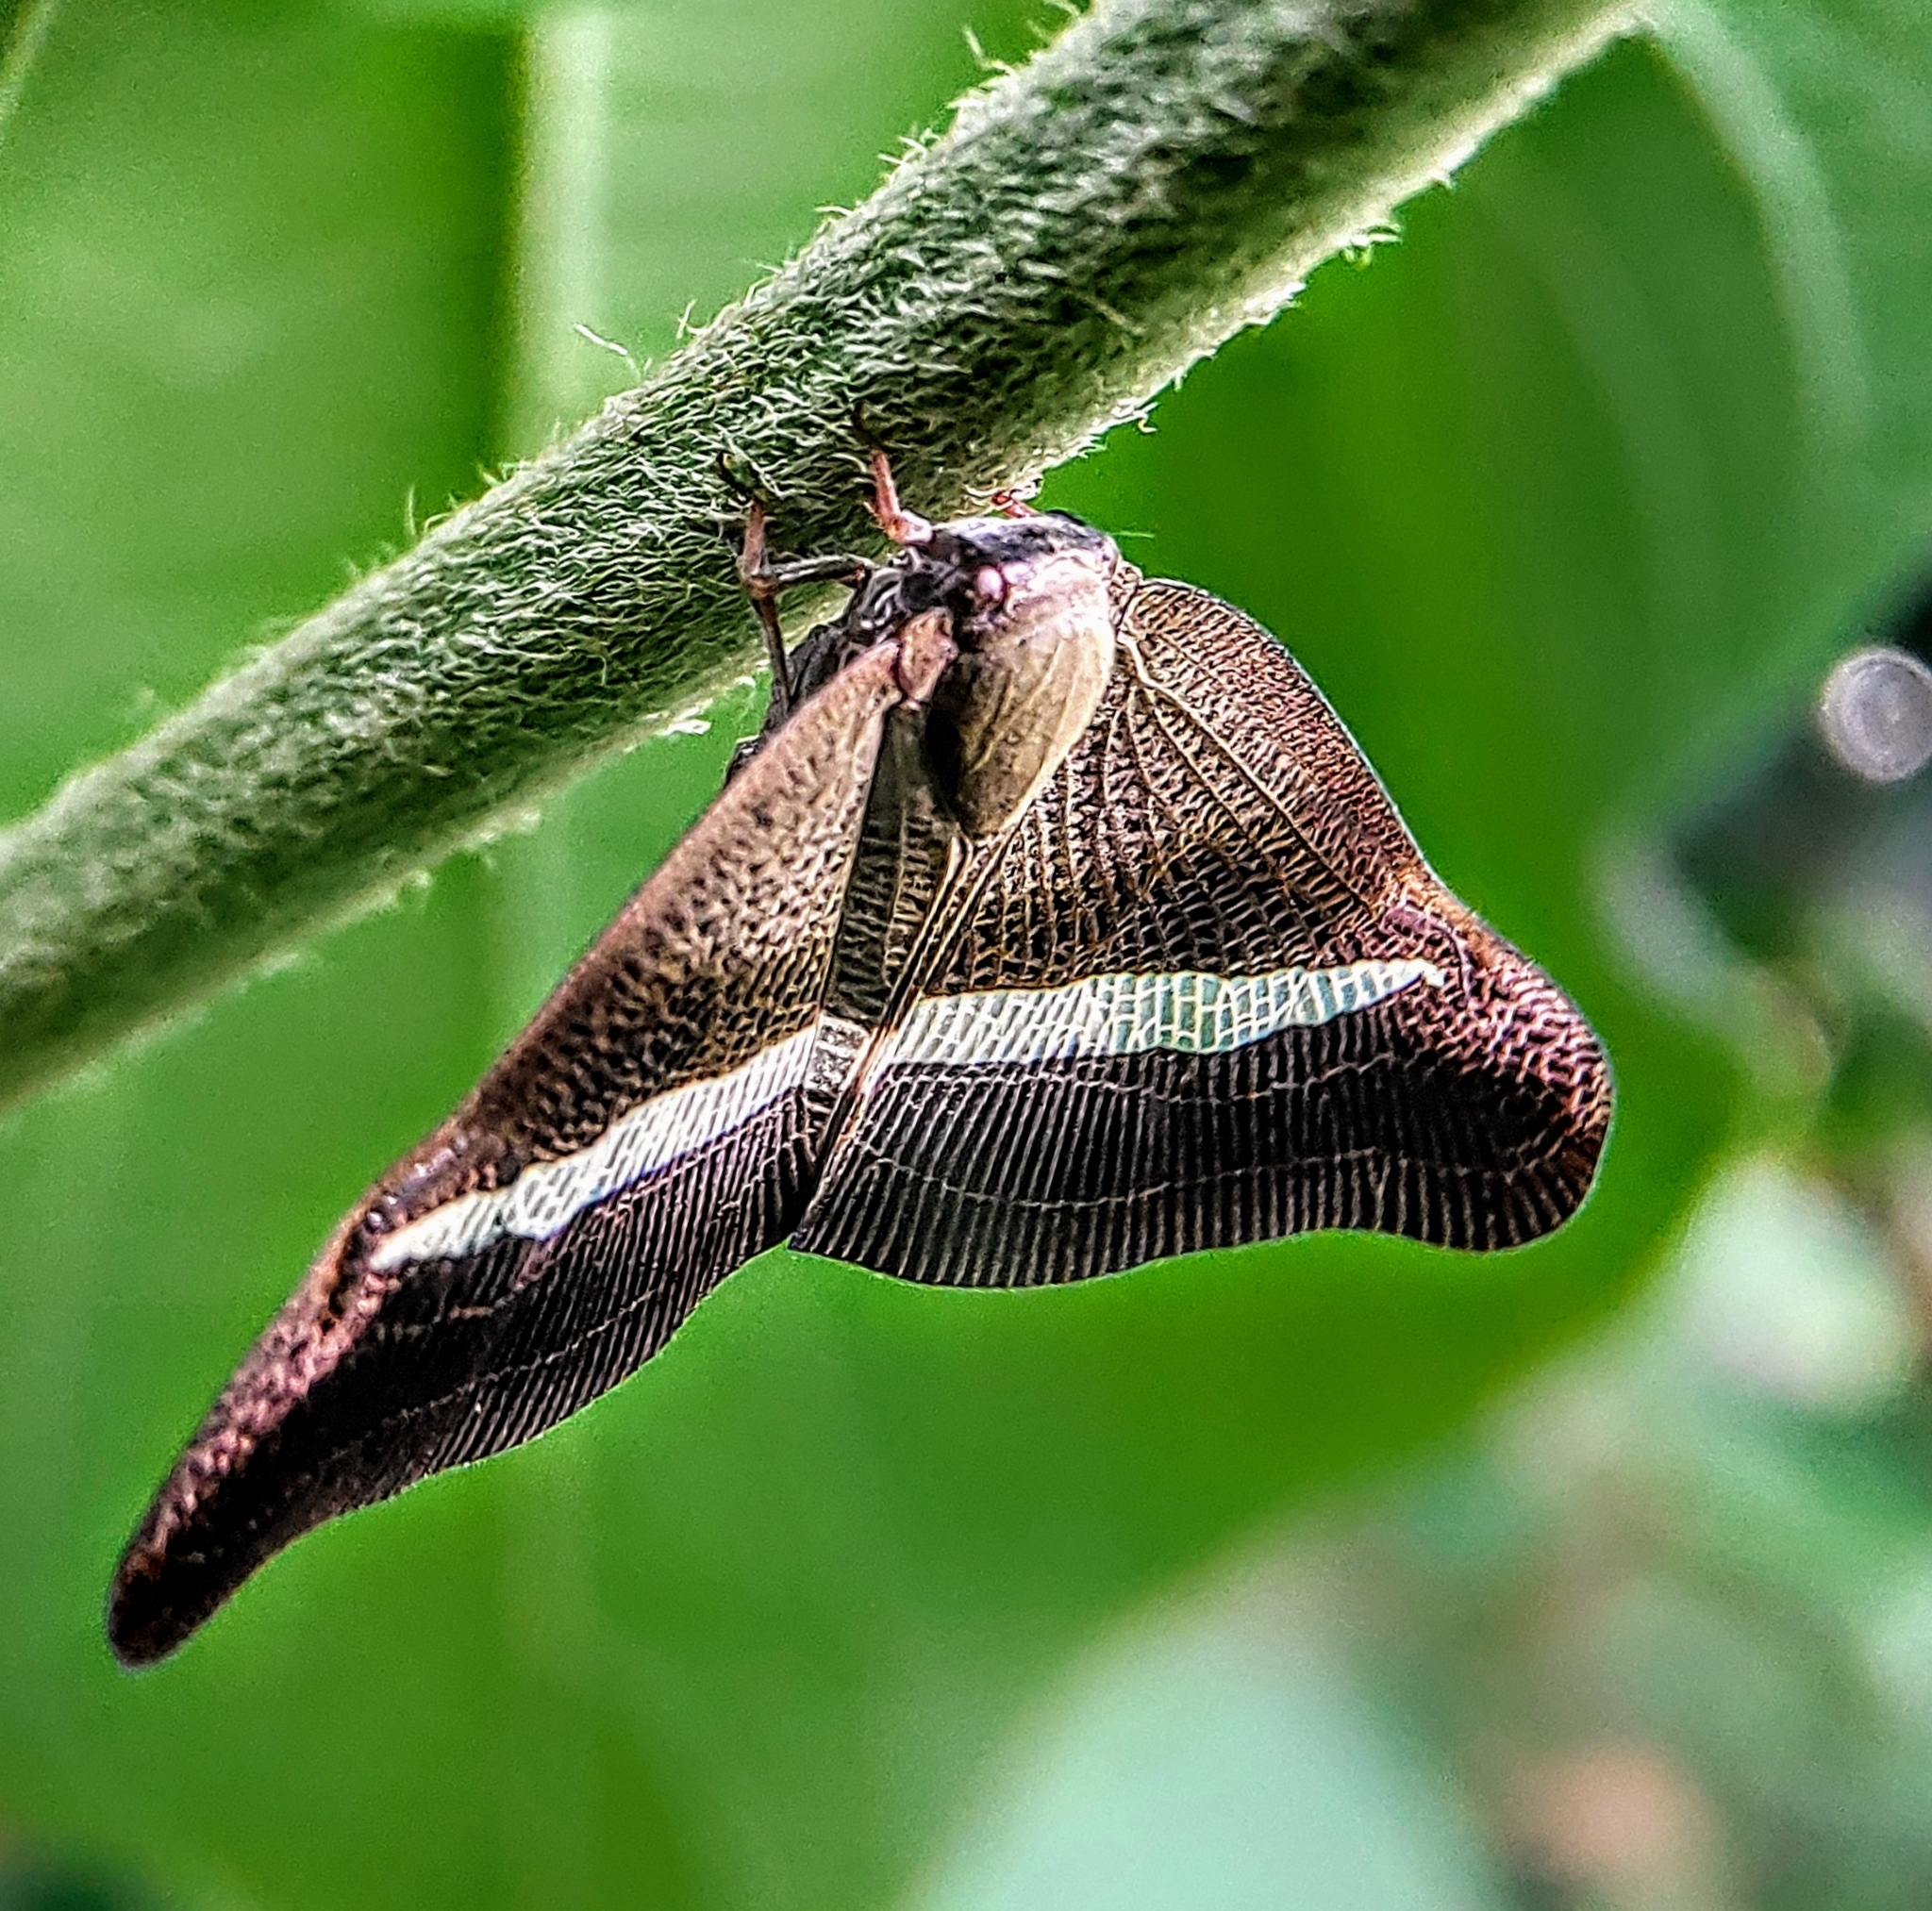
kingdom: Animalia
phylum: Arthropoda
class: Insecta
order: Hemiptera
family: Ricaniidae
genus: Pochazia
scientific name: Pochazia sinuata
